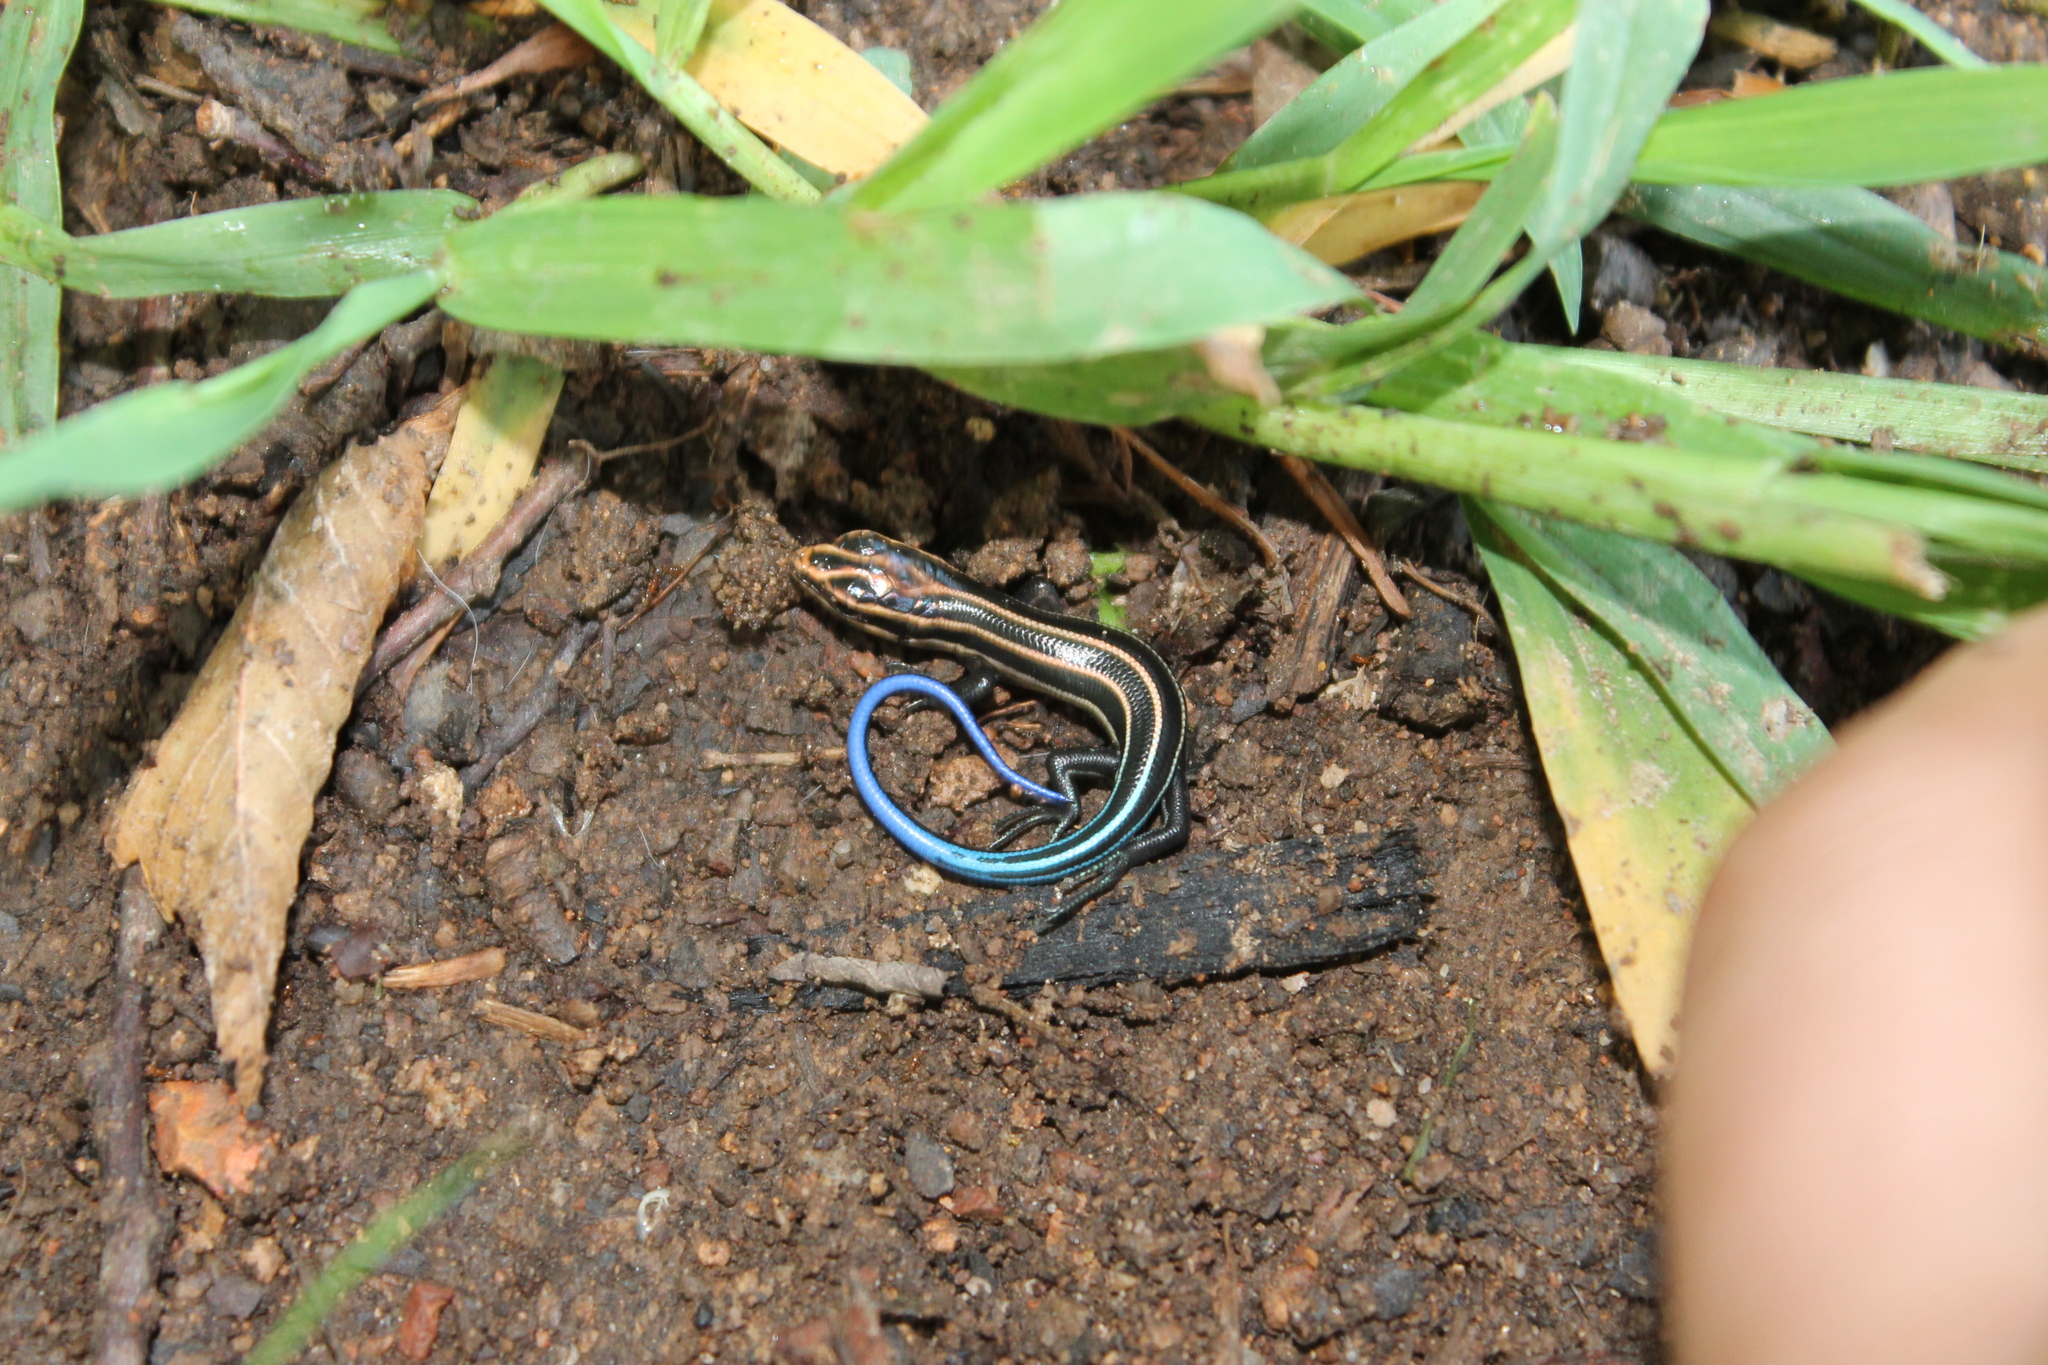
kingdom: Animalia
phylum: Chordata
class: Squamata
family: Scincidae
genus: Plestiodon
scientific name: Plestiodon fasciatus
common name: Five-lined skink
